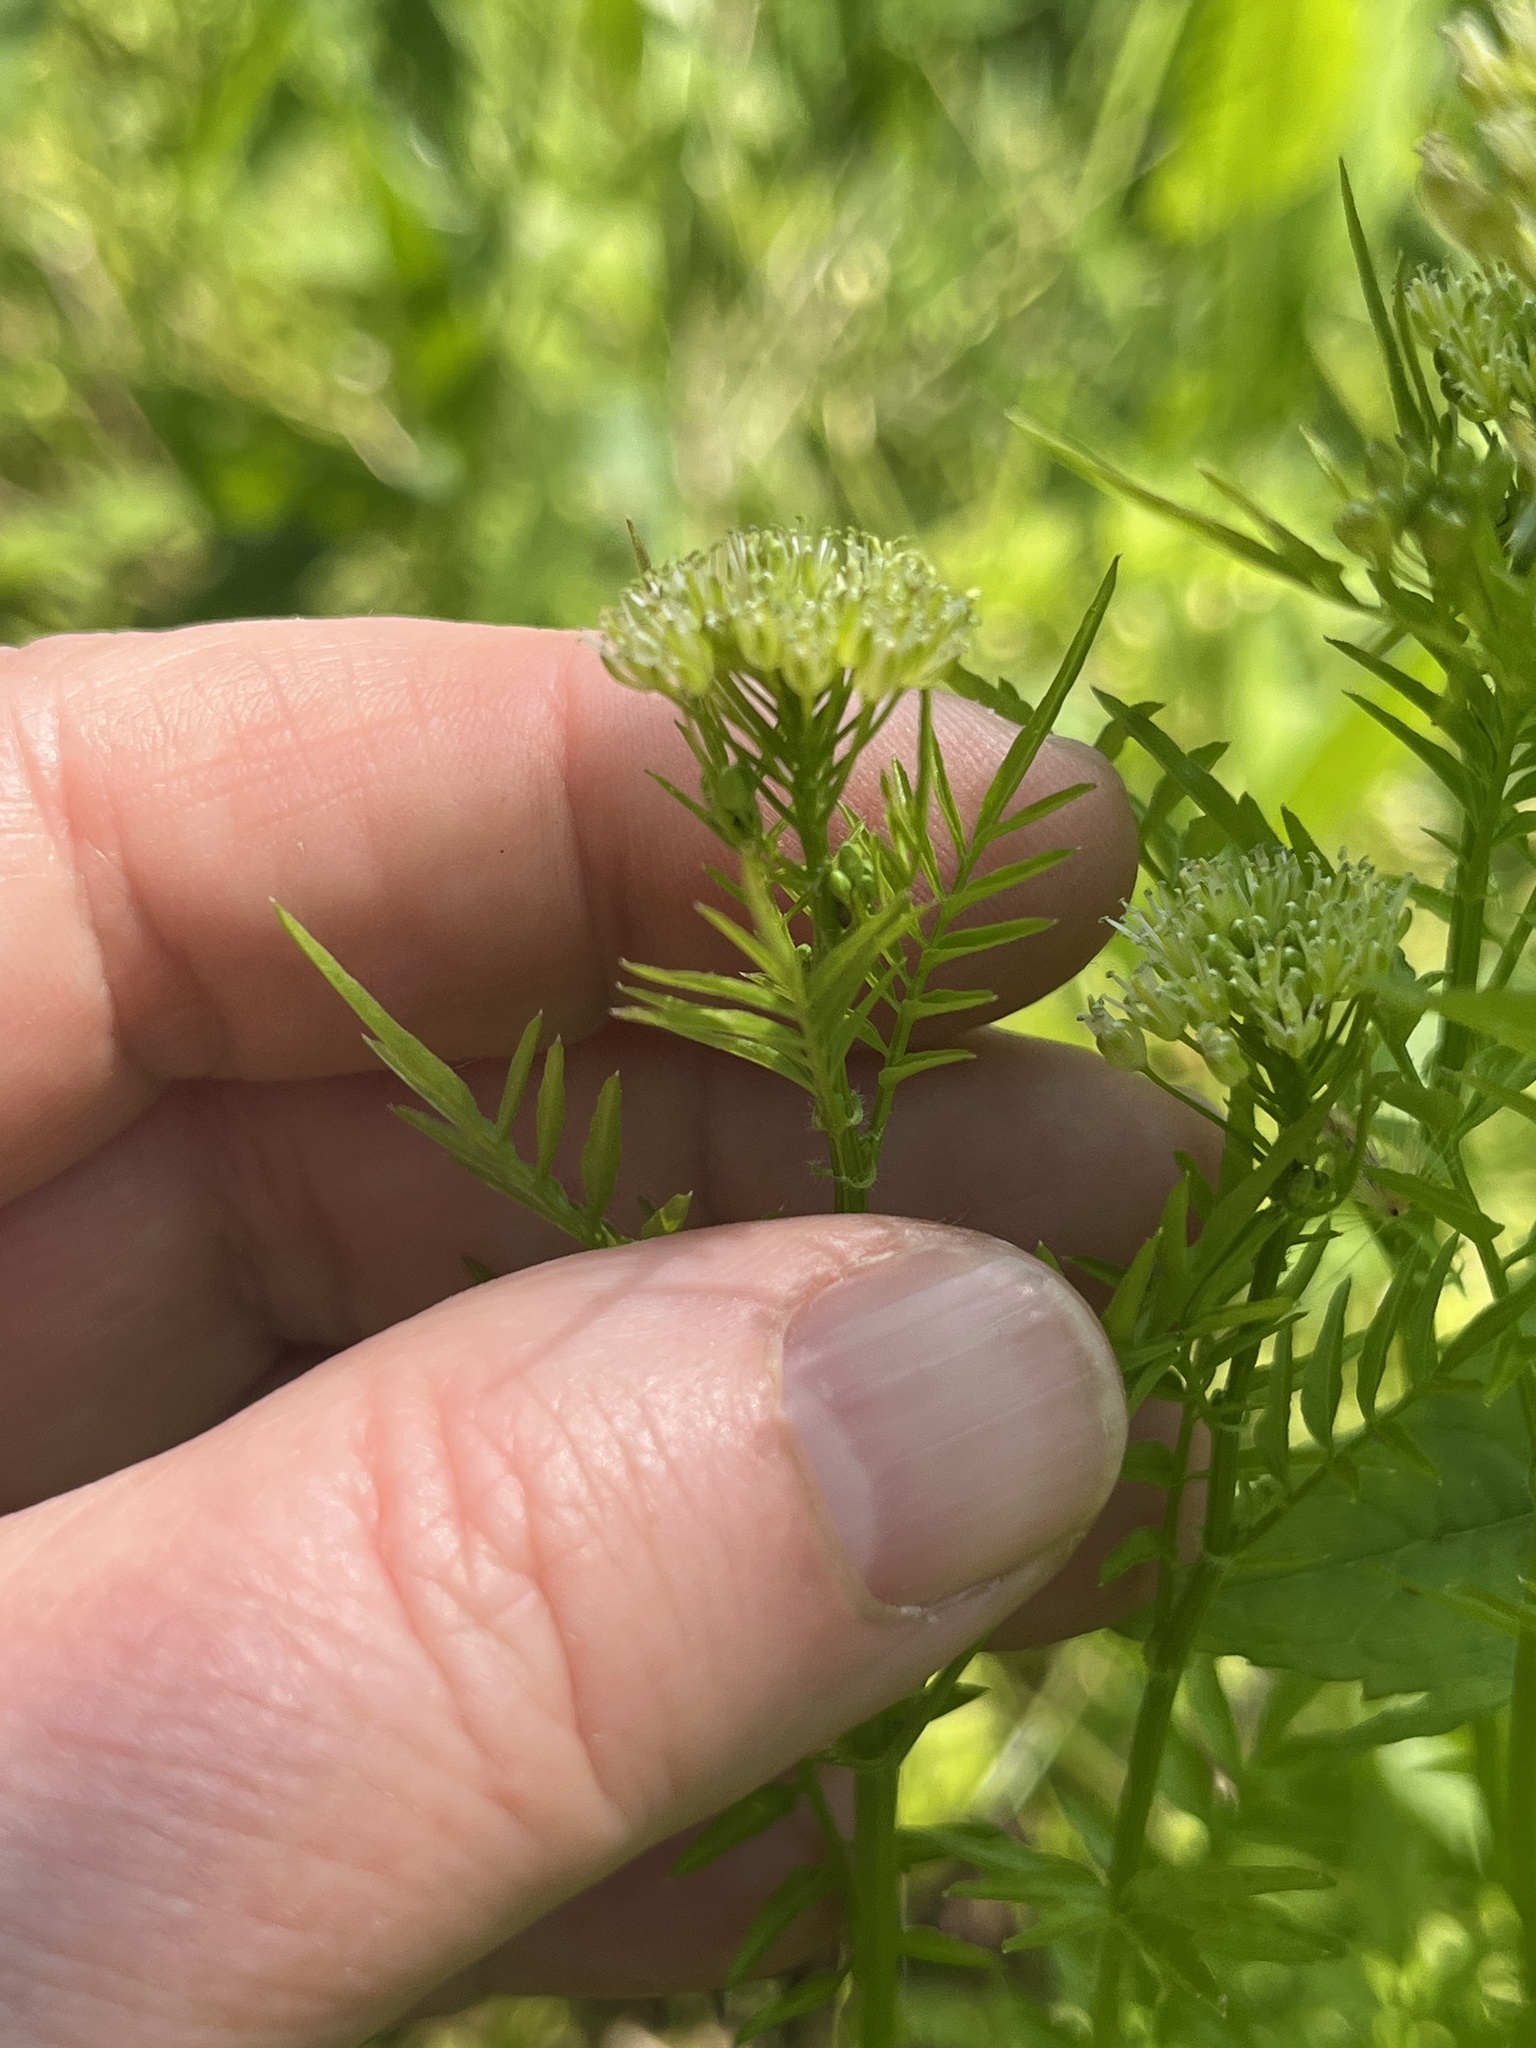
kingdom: Plantae
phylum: Tracheophyta
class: Magnoliopsida
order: Brassicales
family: Brassicaceae
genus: Cardamine
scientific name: Cardamine impatiens
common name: Narrow-leaved bitter-cress
